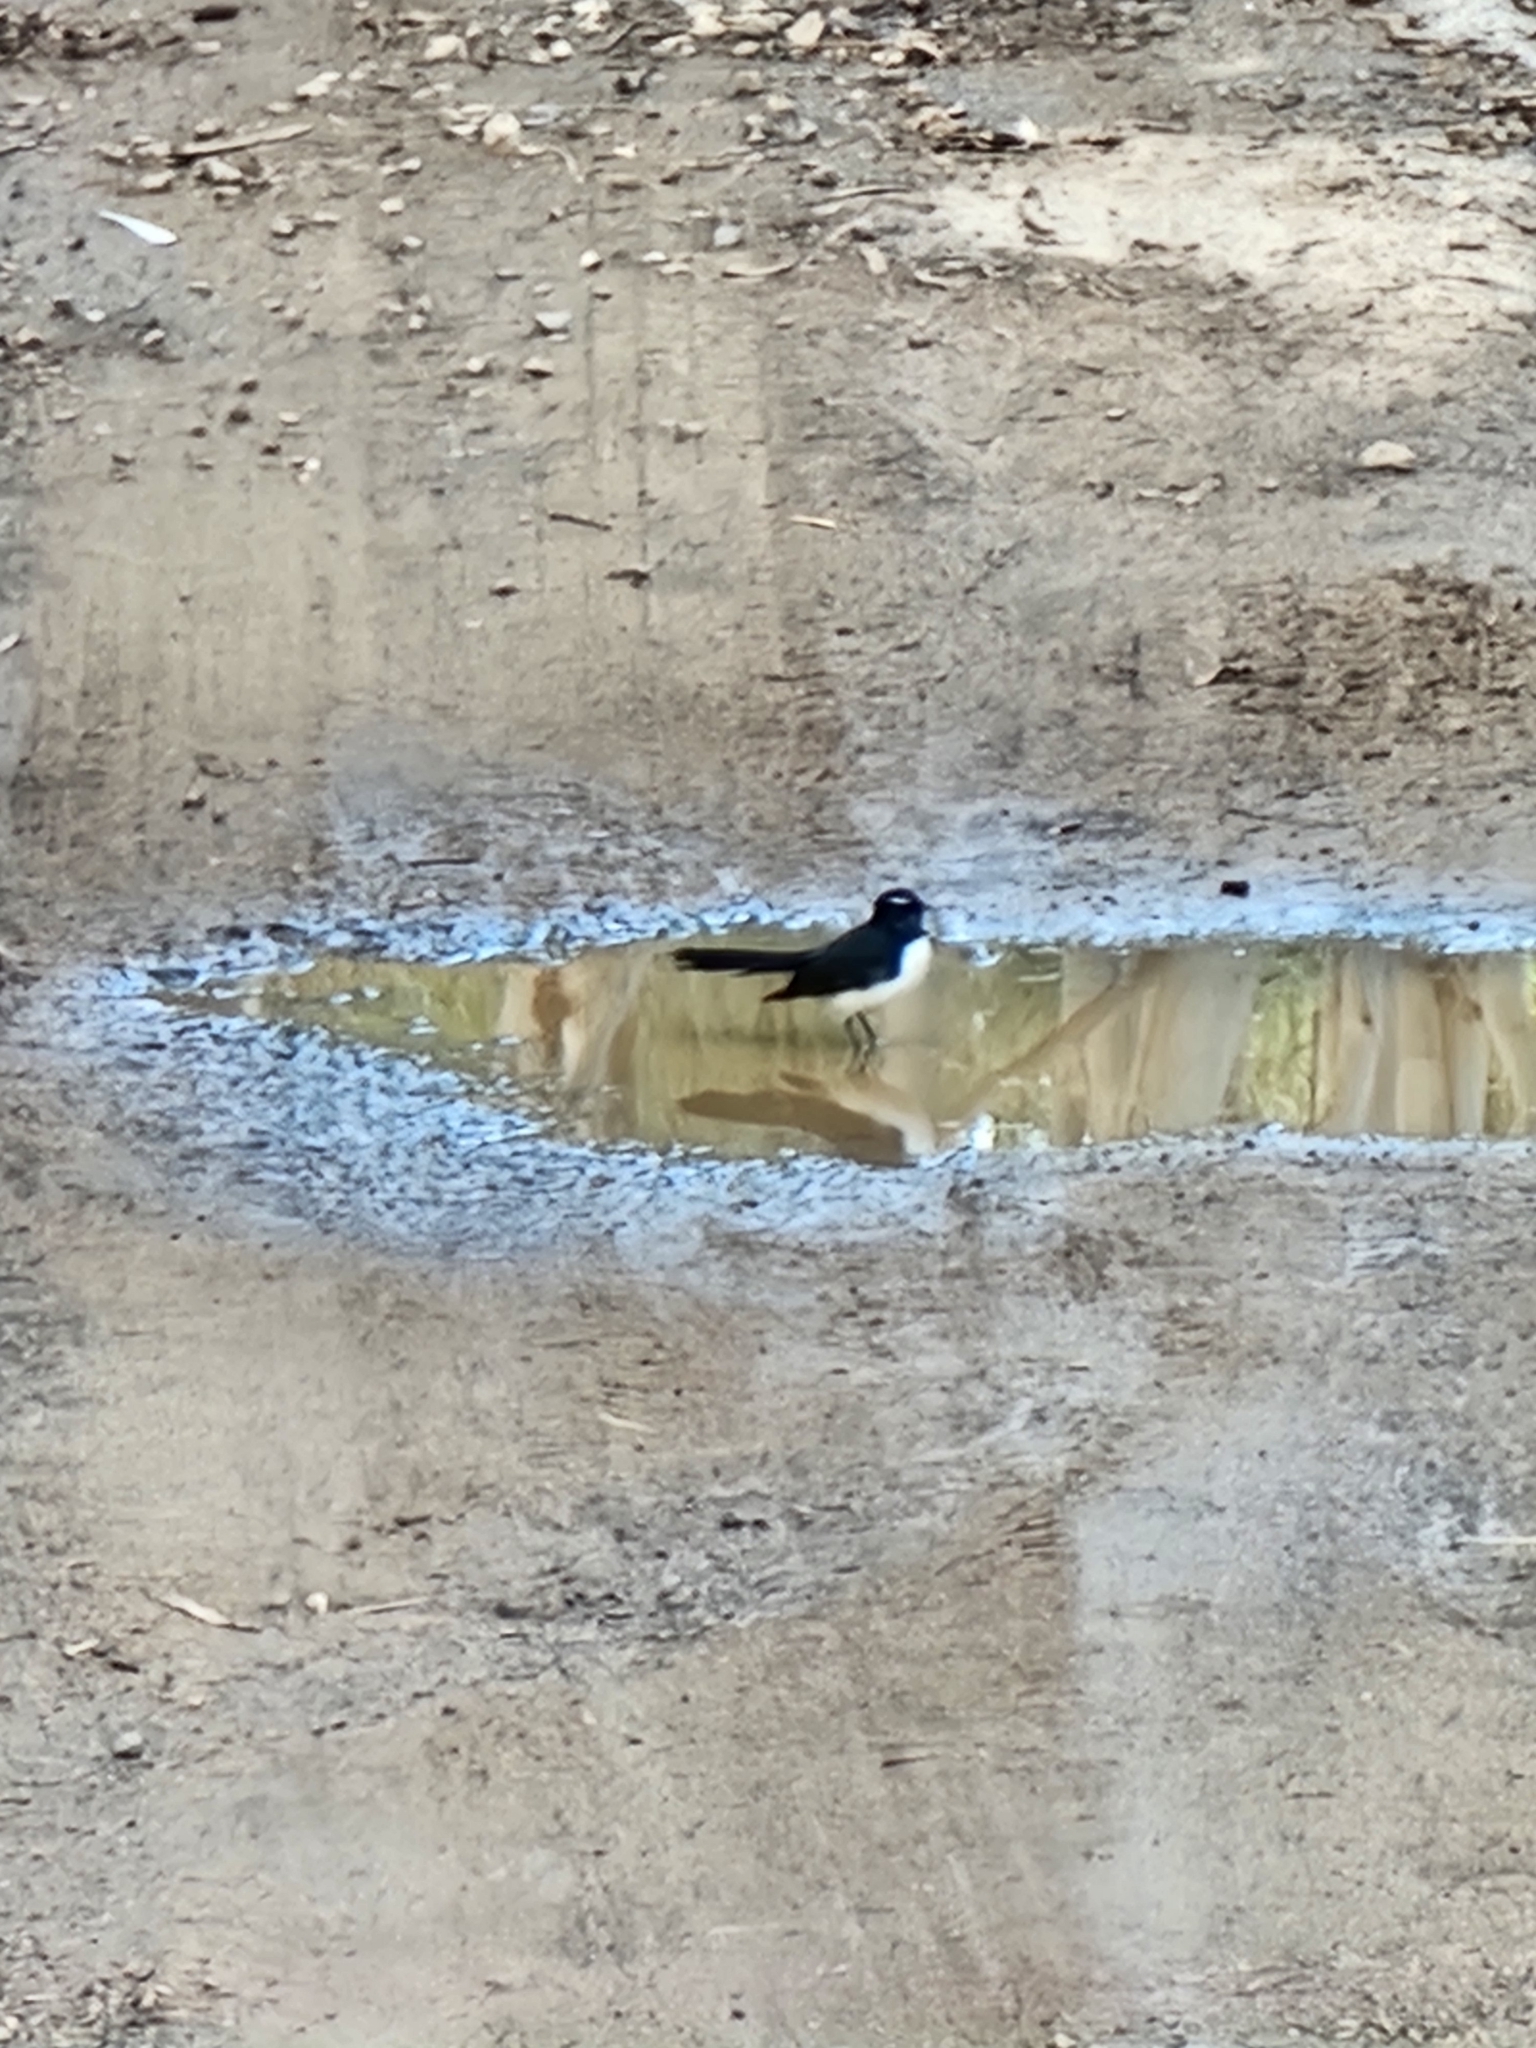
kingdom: Animalia
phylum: Chordata
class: Aves
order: Passeriformes
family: Rhipiduridae
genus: Rhipidura
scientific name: Rhipidura leucophrys
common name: Willie wagtail
